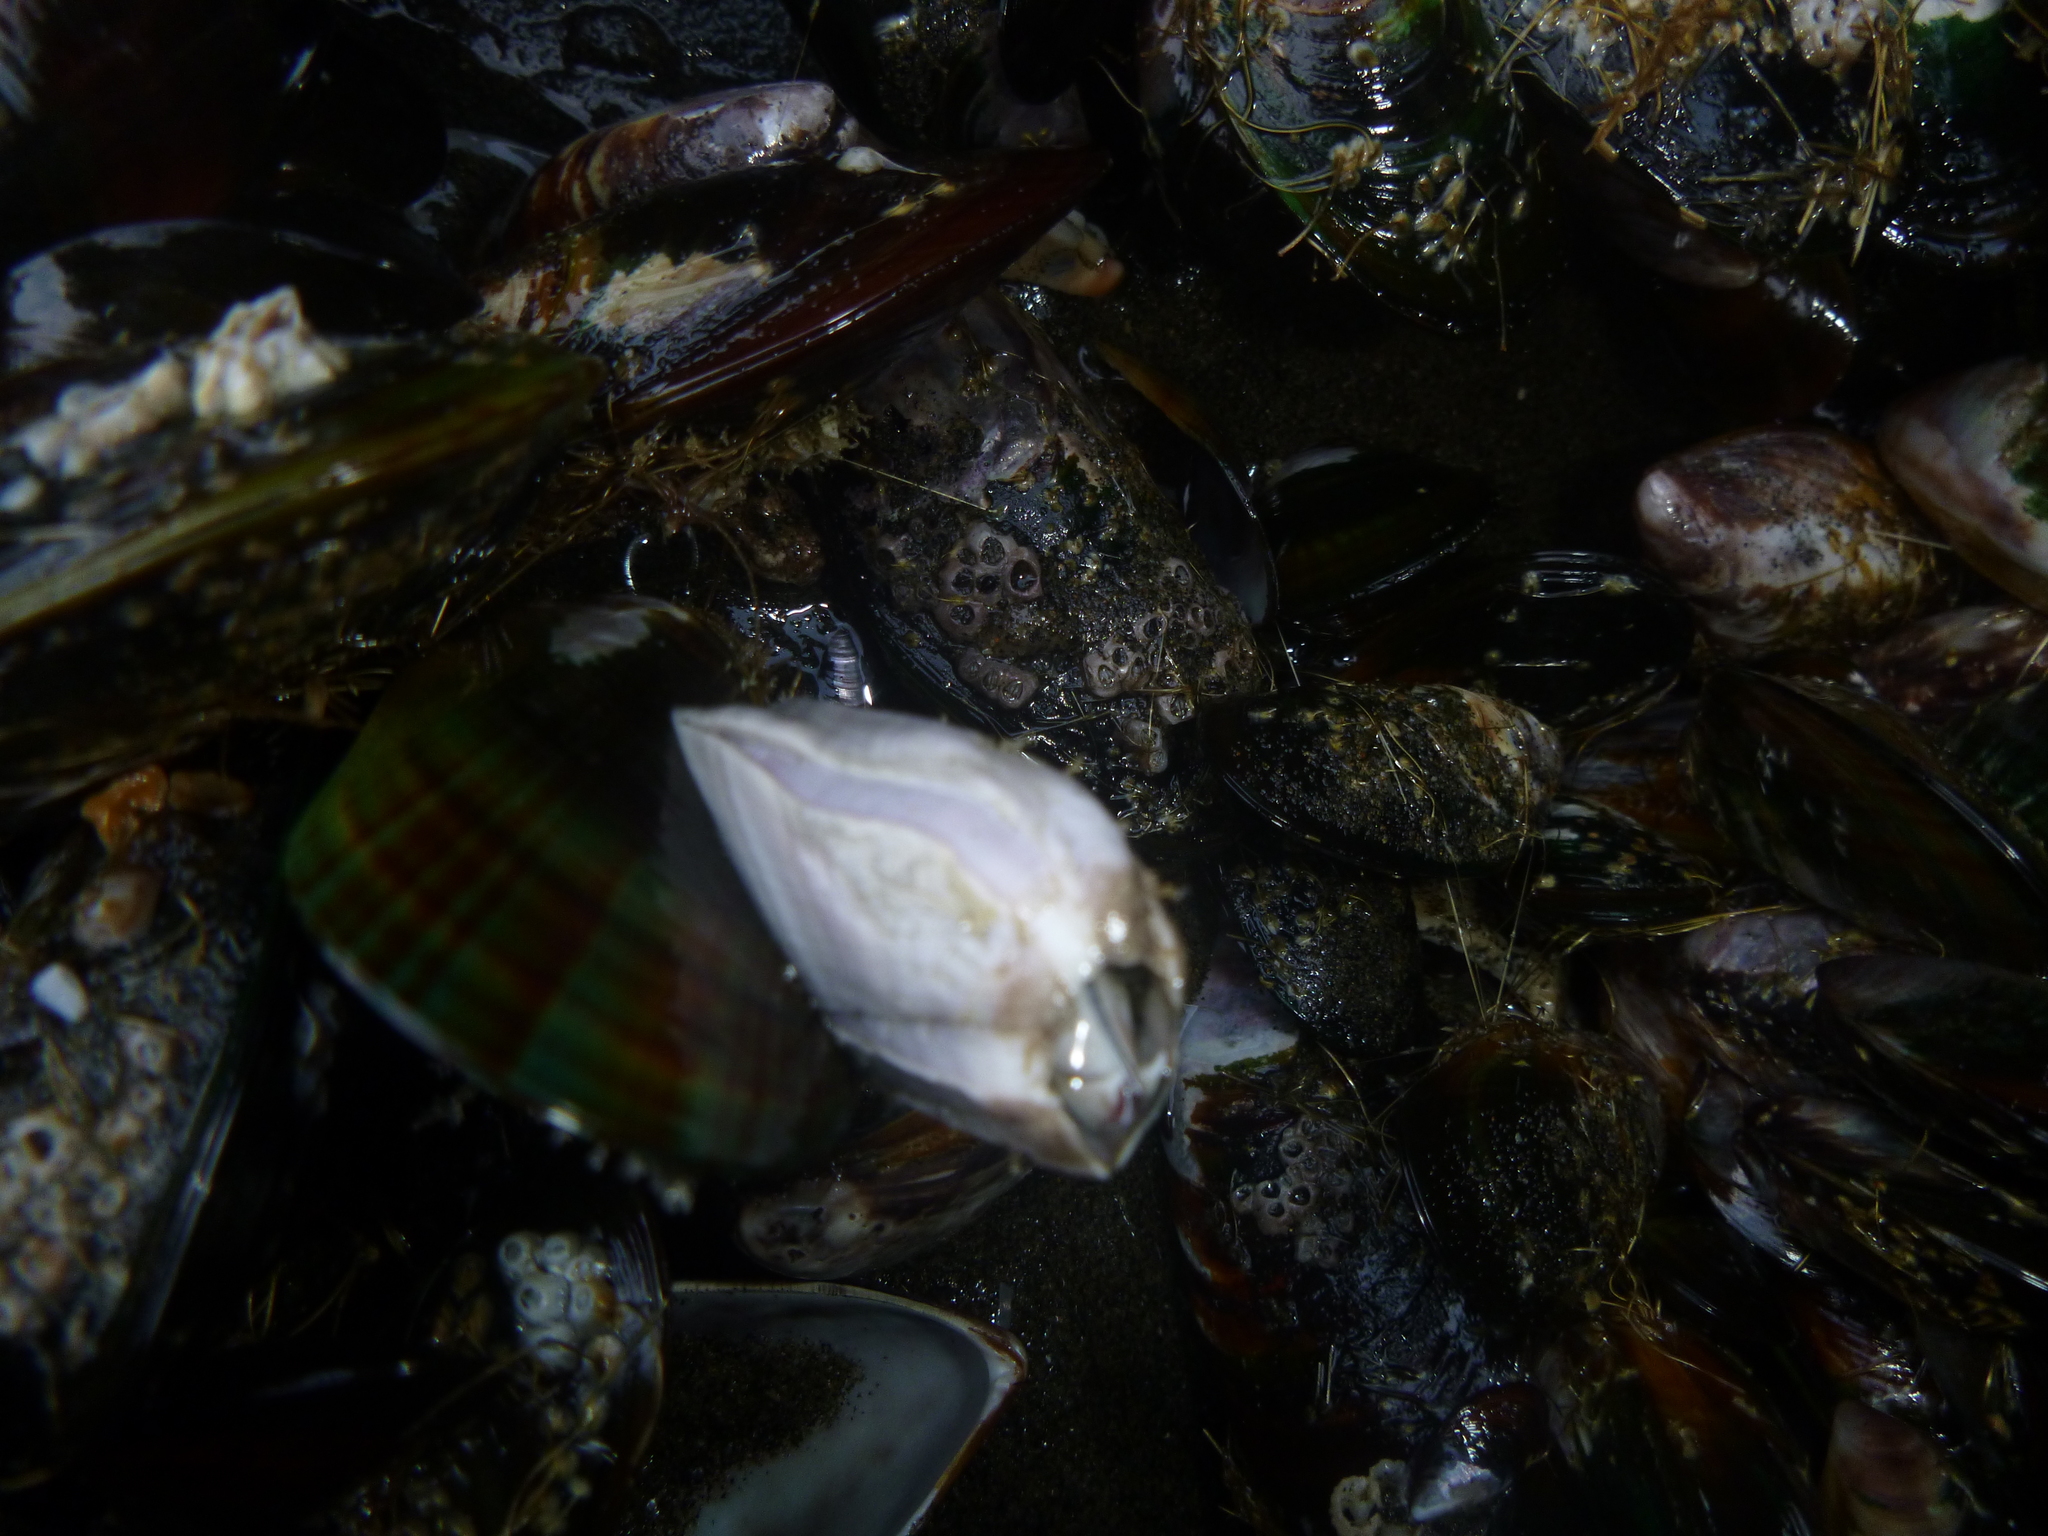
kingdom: Animalia
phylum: Arthropoda
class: Maxillopoda
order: Sessilia
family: Balanidae
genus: Austromegabalanus
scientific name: Austromegabalanus nigrescens
